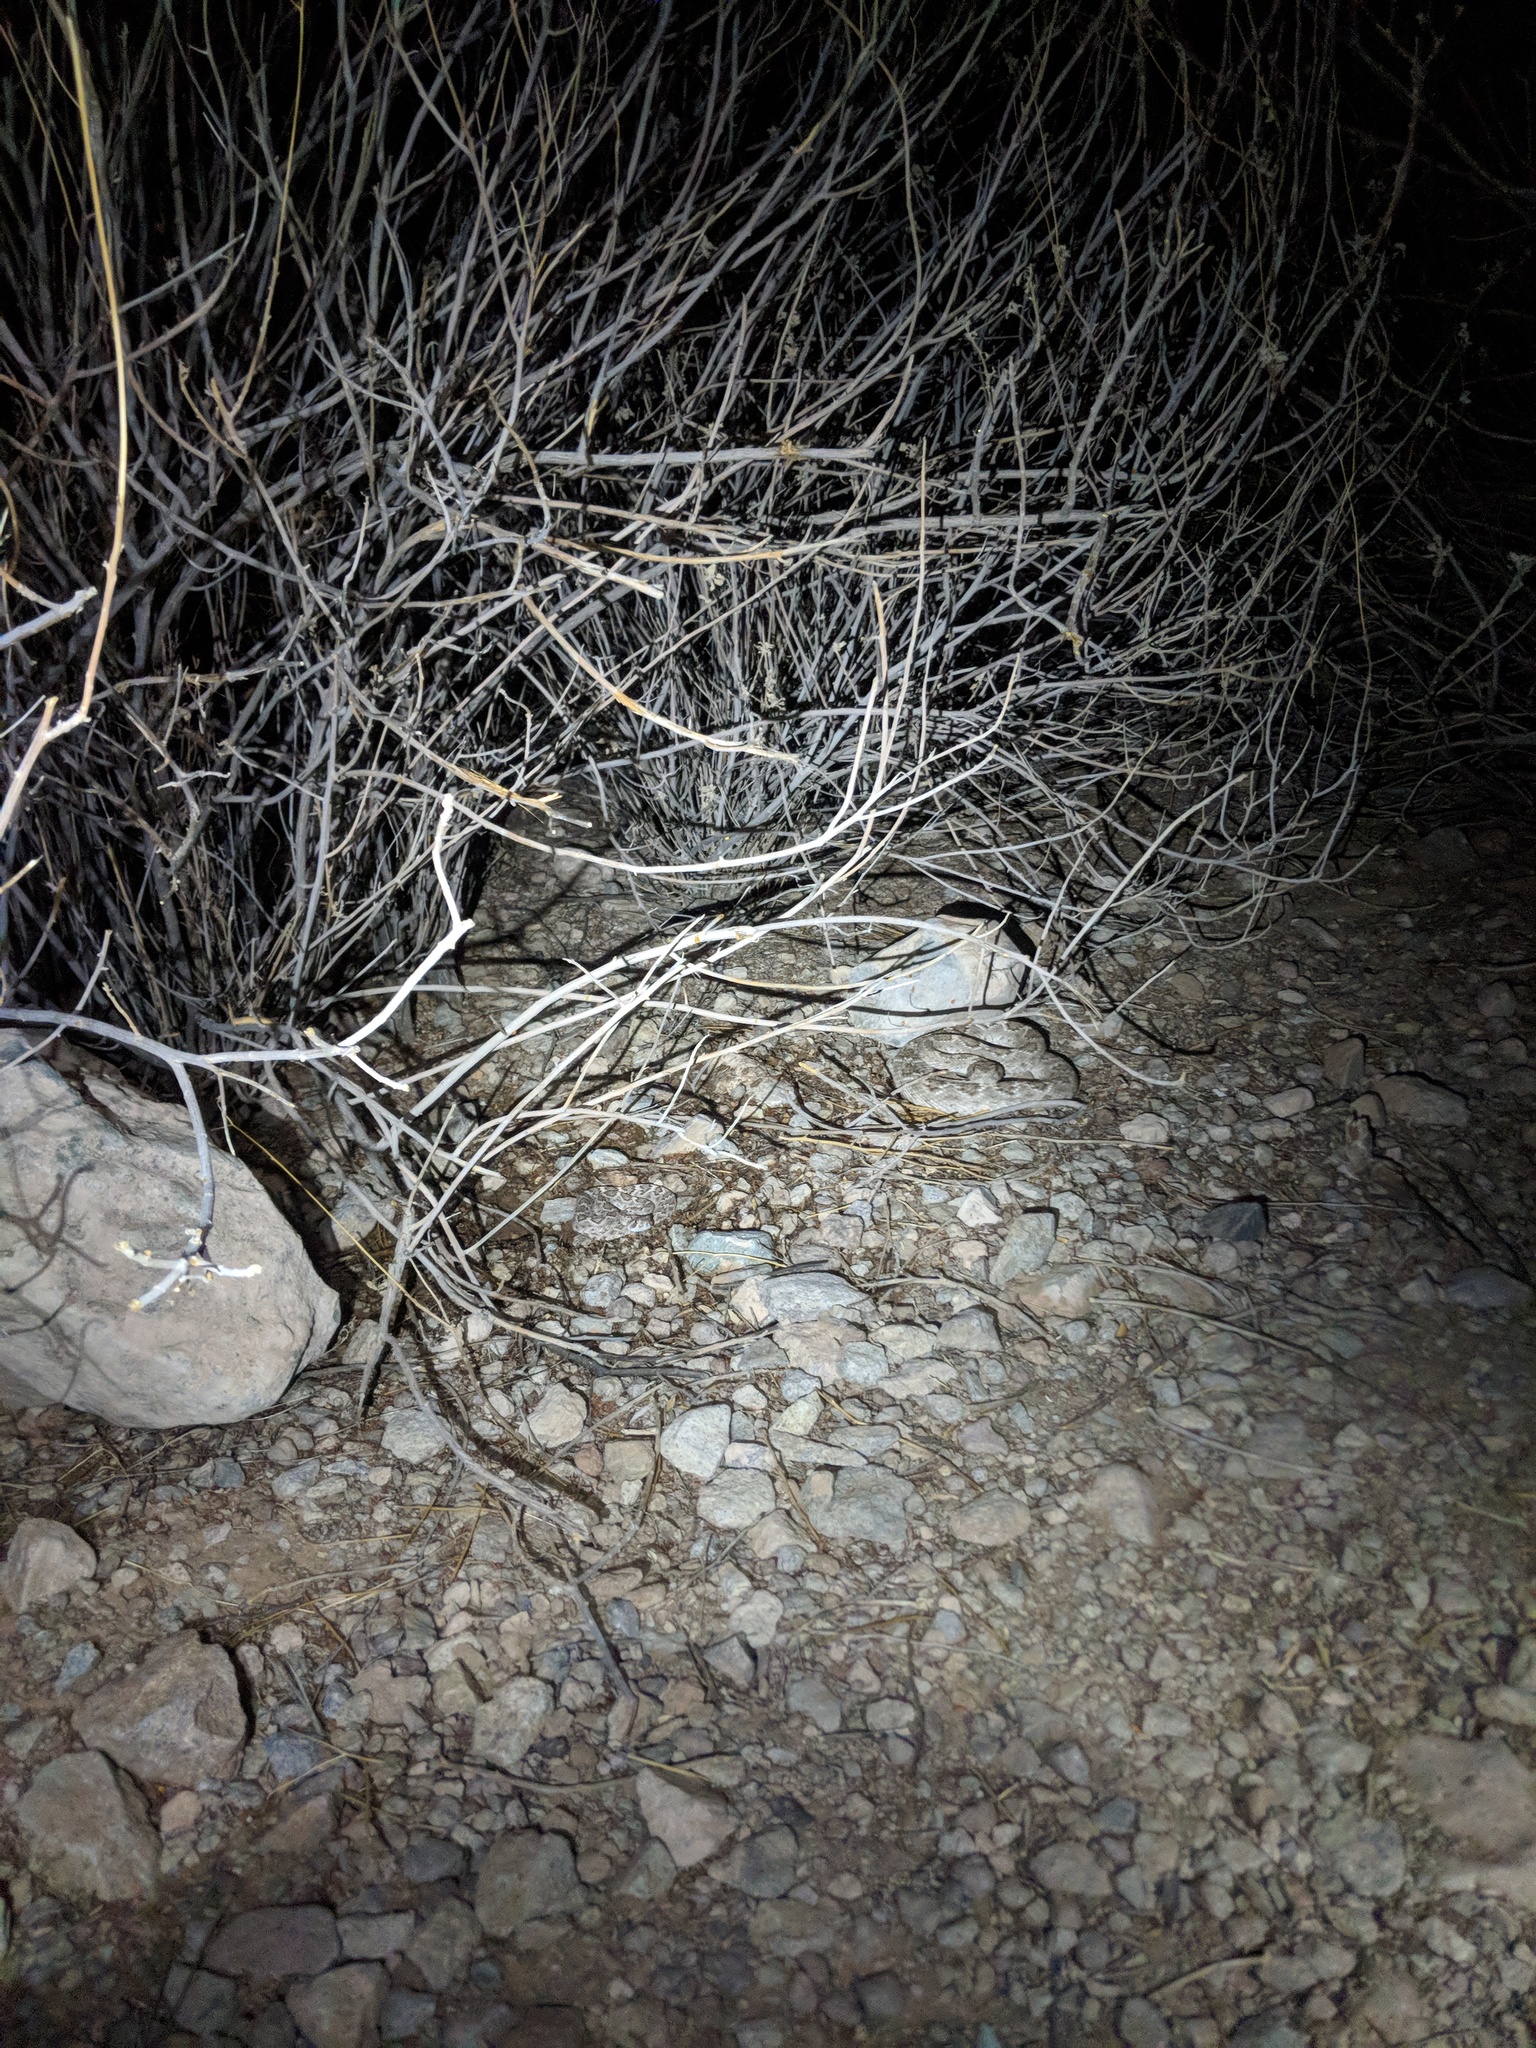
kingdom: Animalia
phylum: Chordata
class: Squamata
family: Viperidae
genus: Crotalus
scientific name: Crotalus atrox
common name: Western diamond-backed rattlesnake
